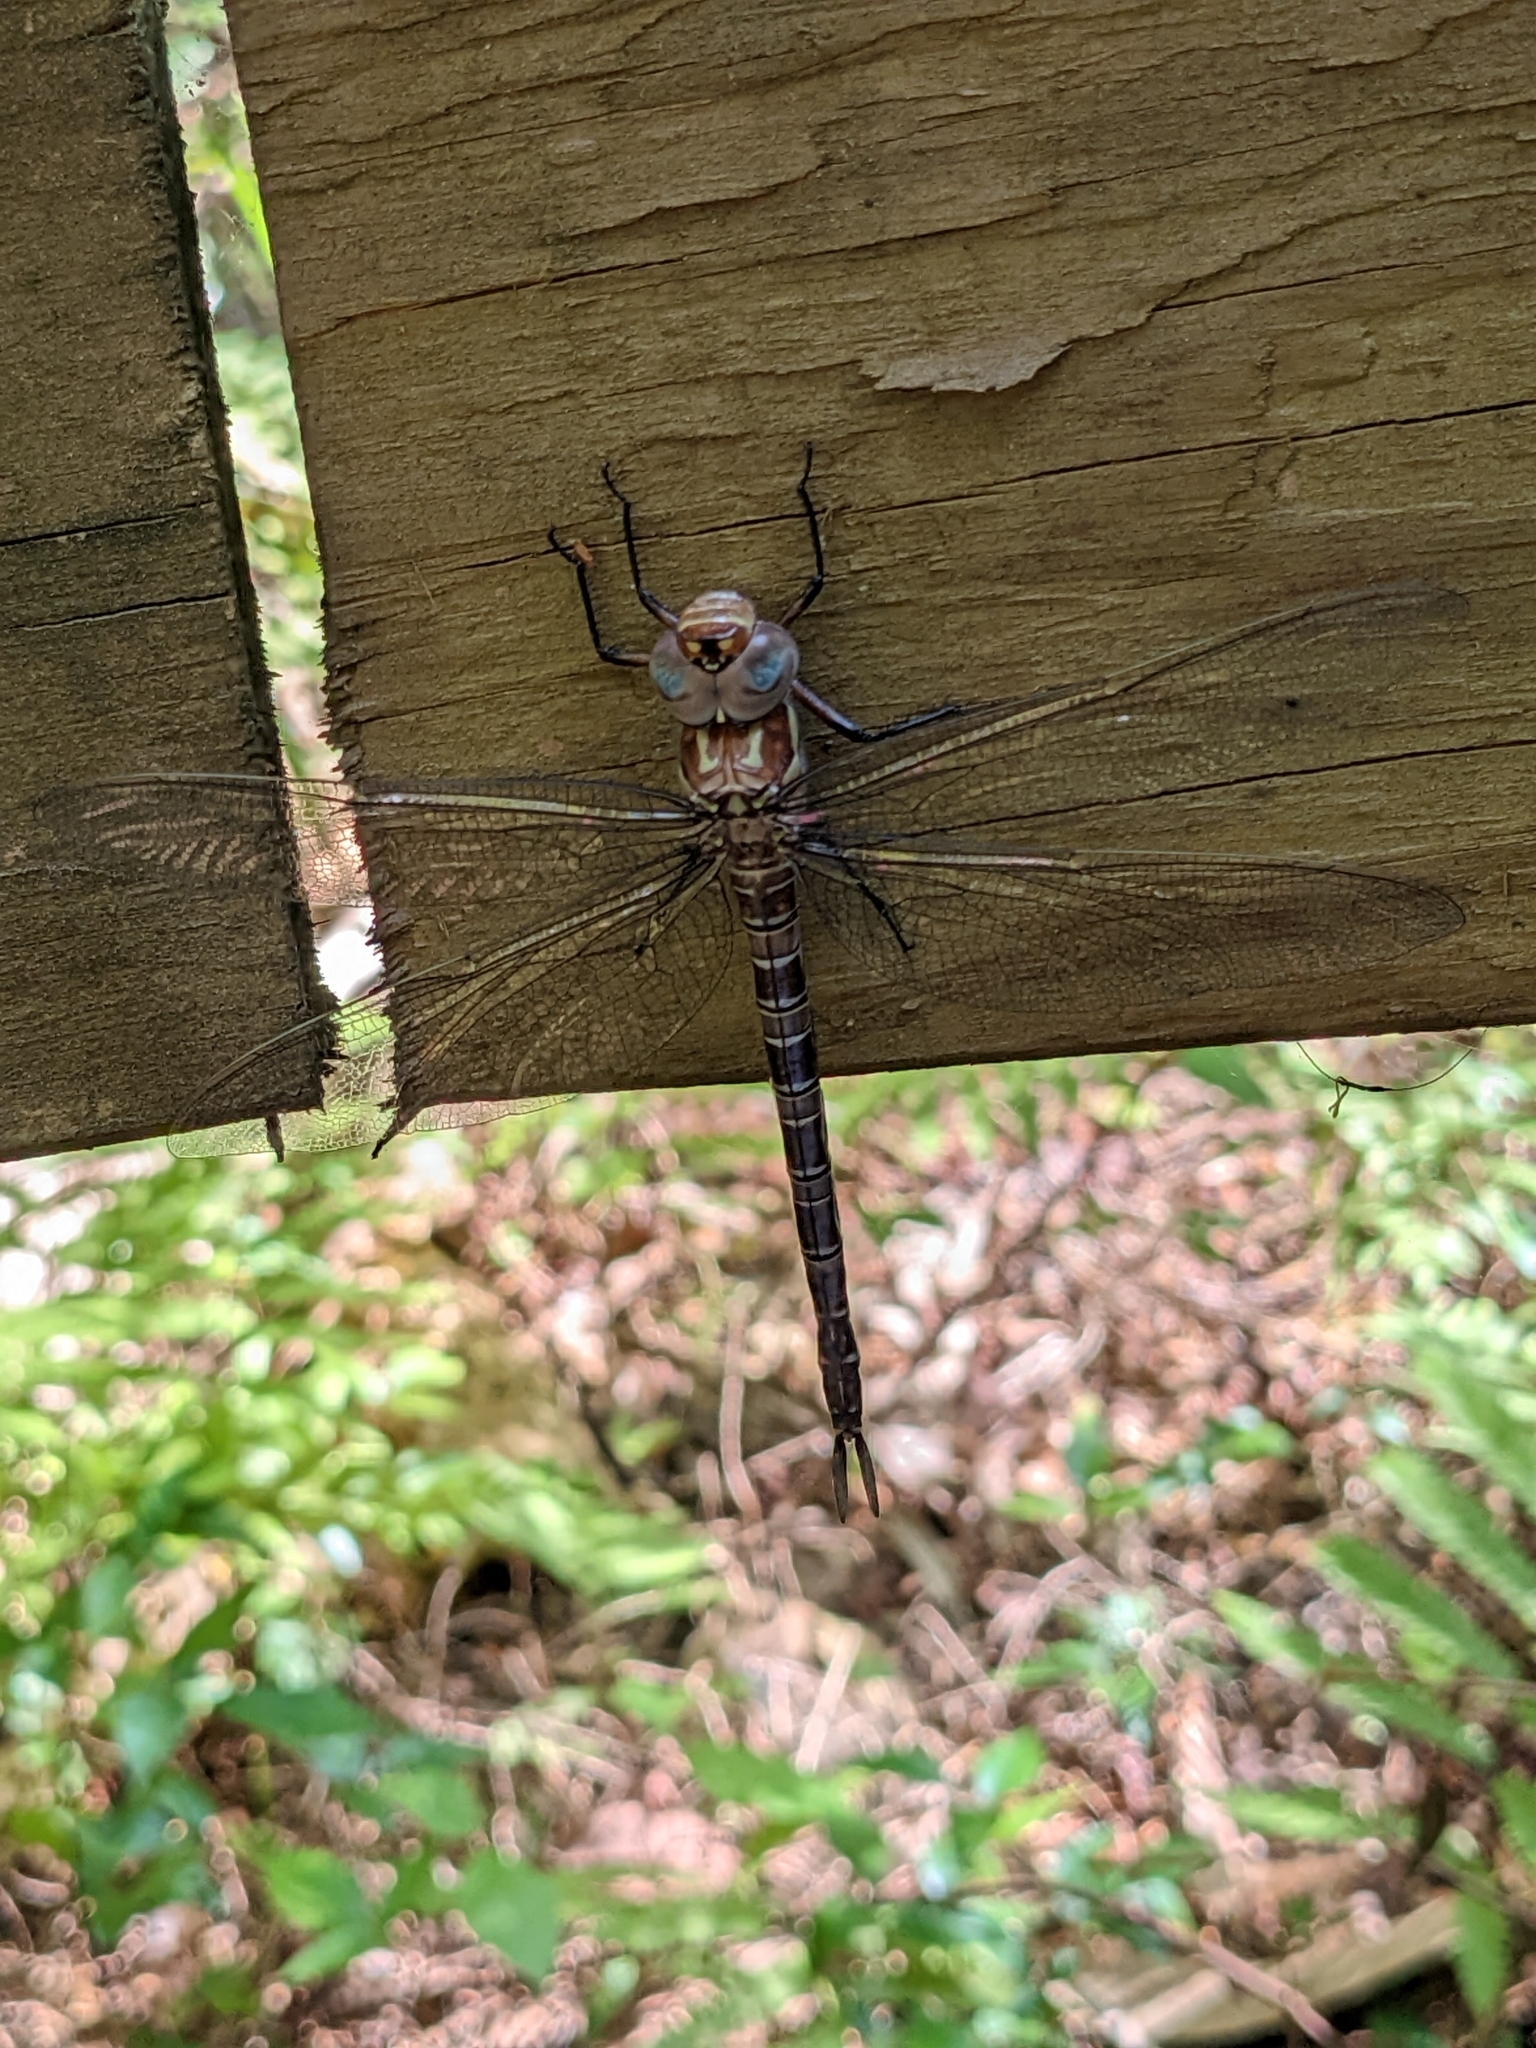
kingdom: Animalia
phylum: Arthropoda
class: Insecta
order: Odonata
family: Aeshnidae
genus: Epiaeschna
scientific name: Epiaeschna heros
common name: Swamp darner
